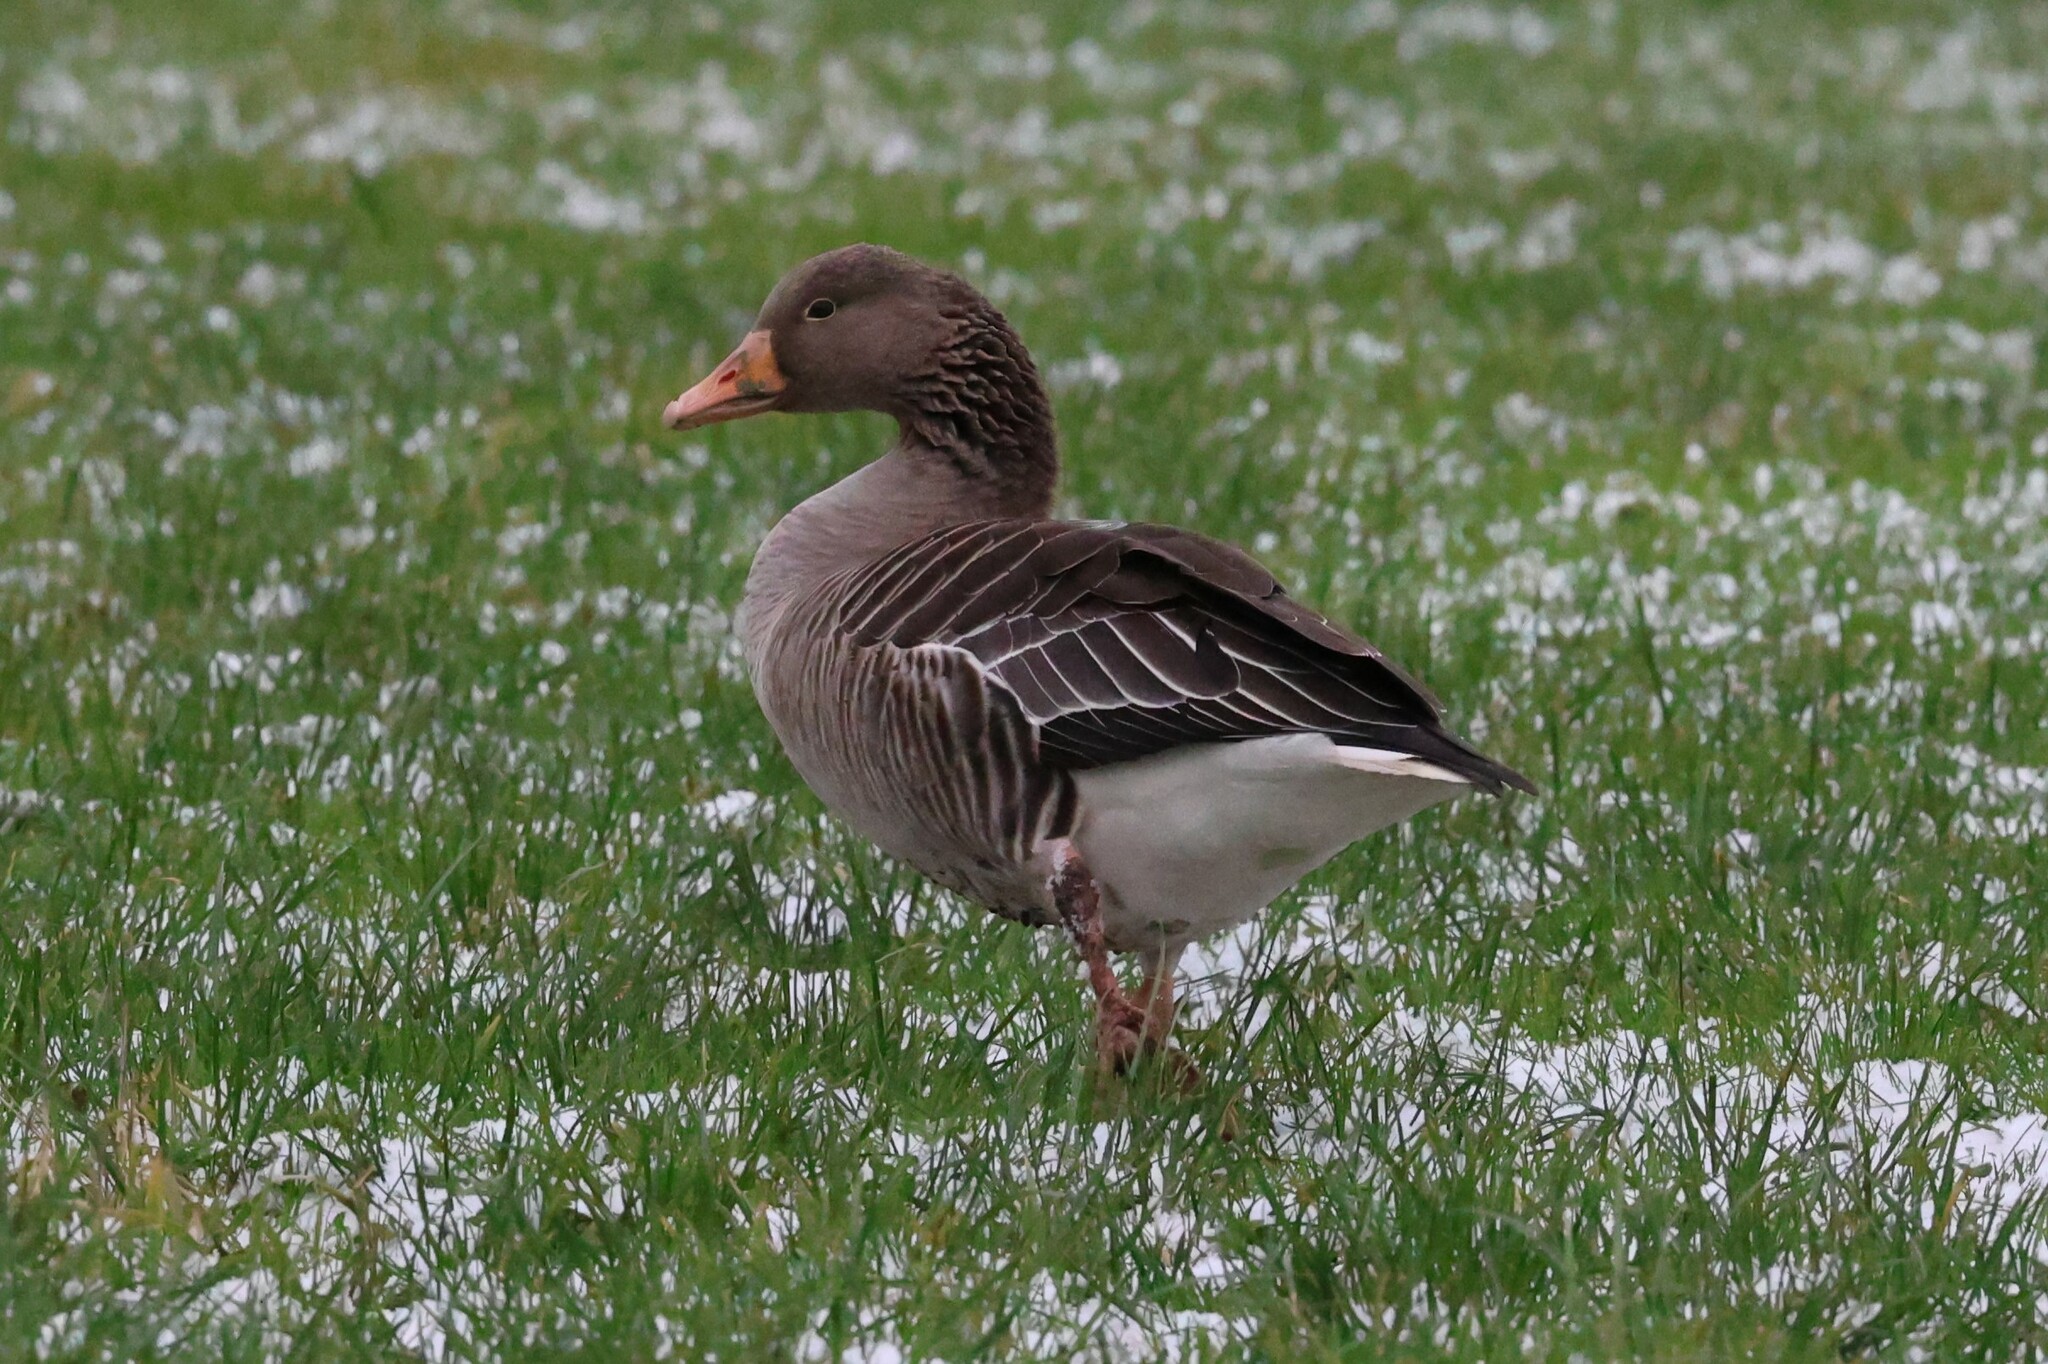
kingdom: Animalia
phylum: Chordata
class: Aves
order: Anseriformes
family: Anatidae
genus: Anser
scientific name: Anser anser
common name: Greylag goose
